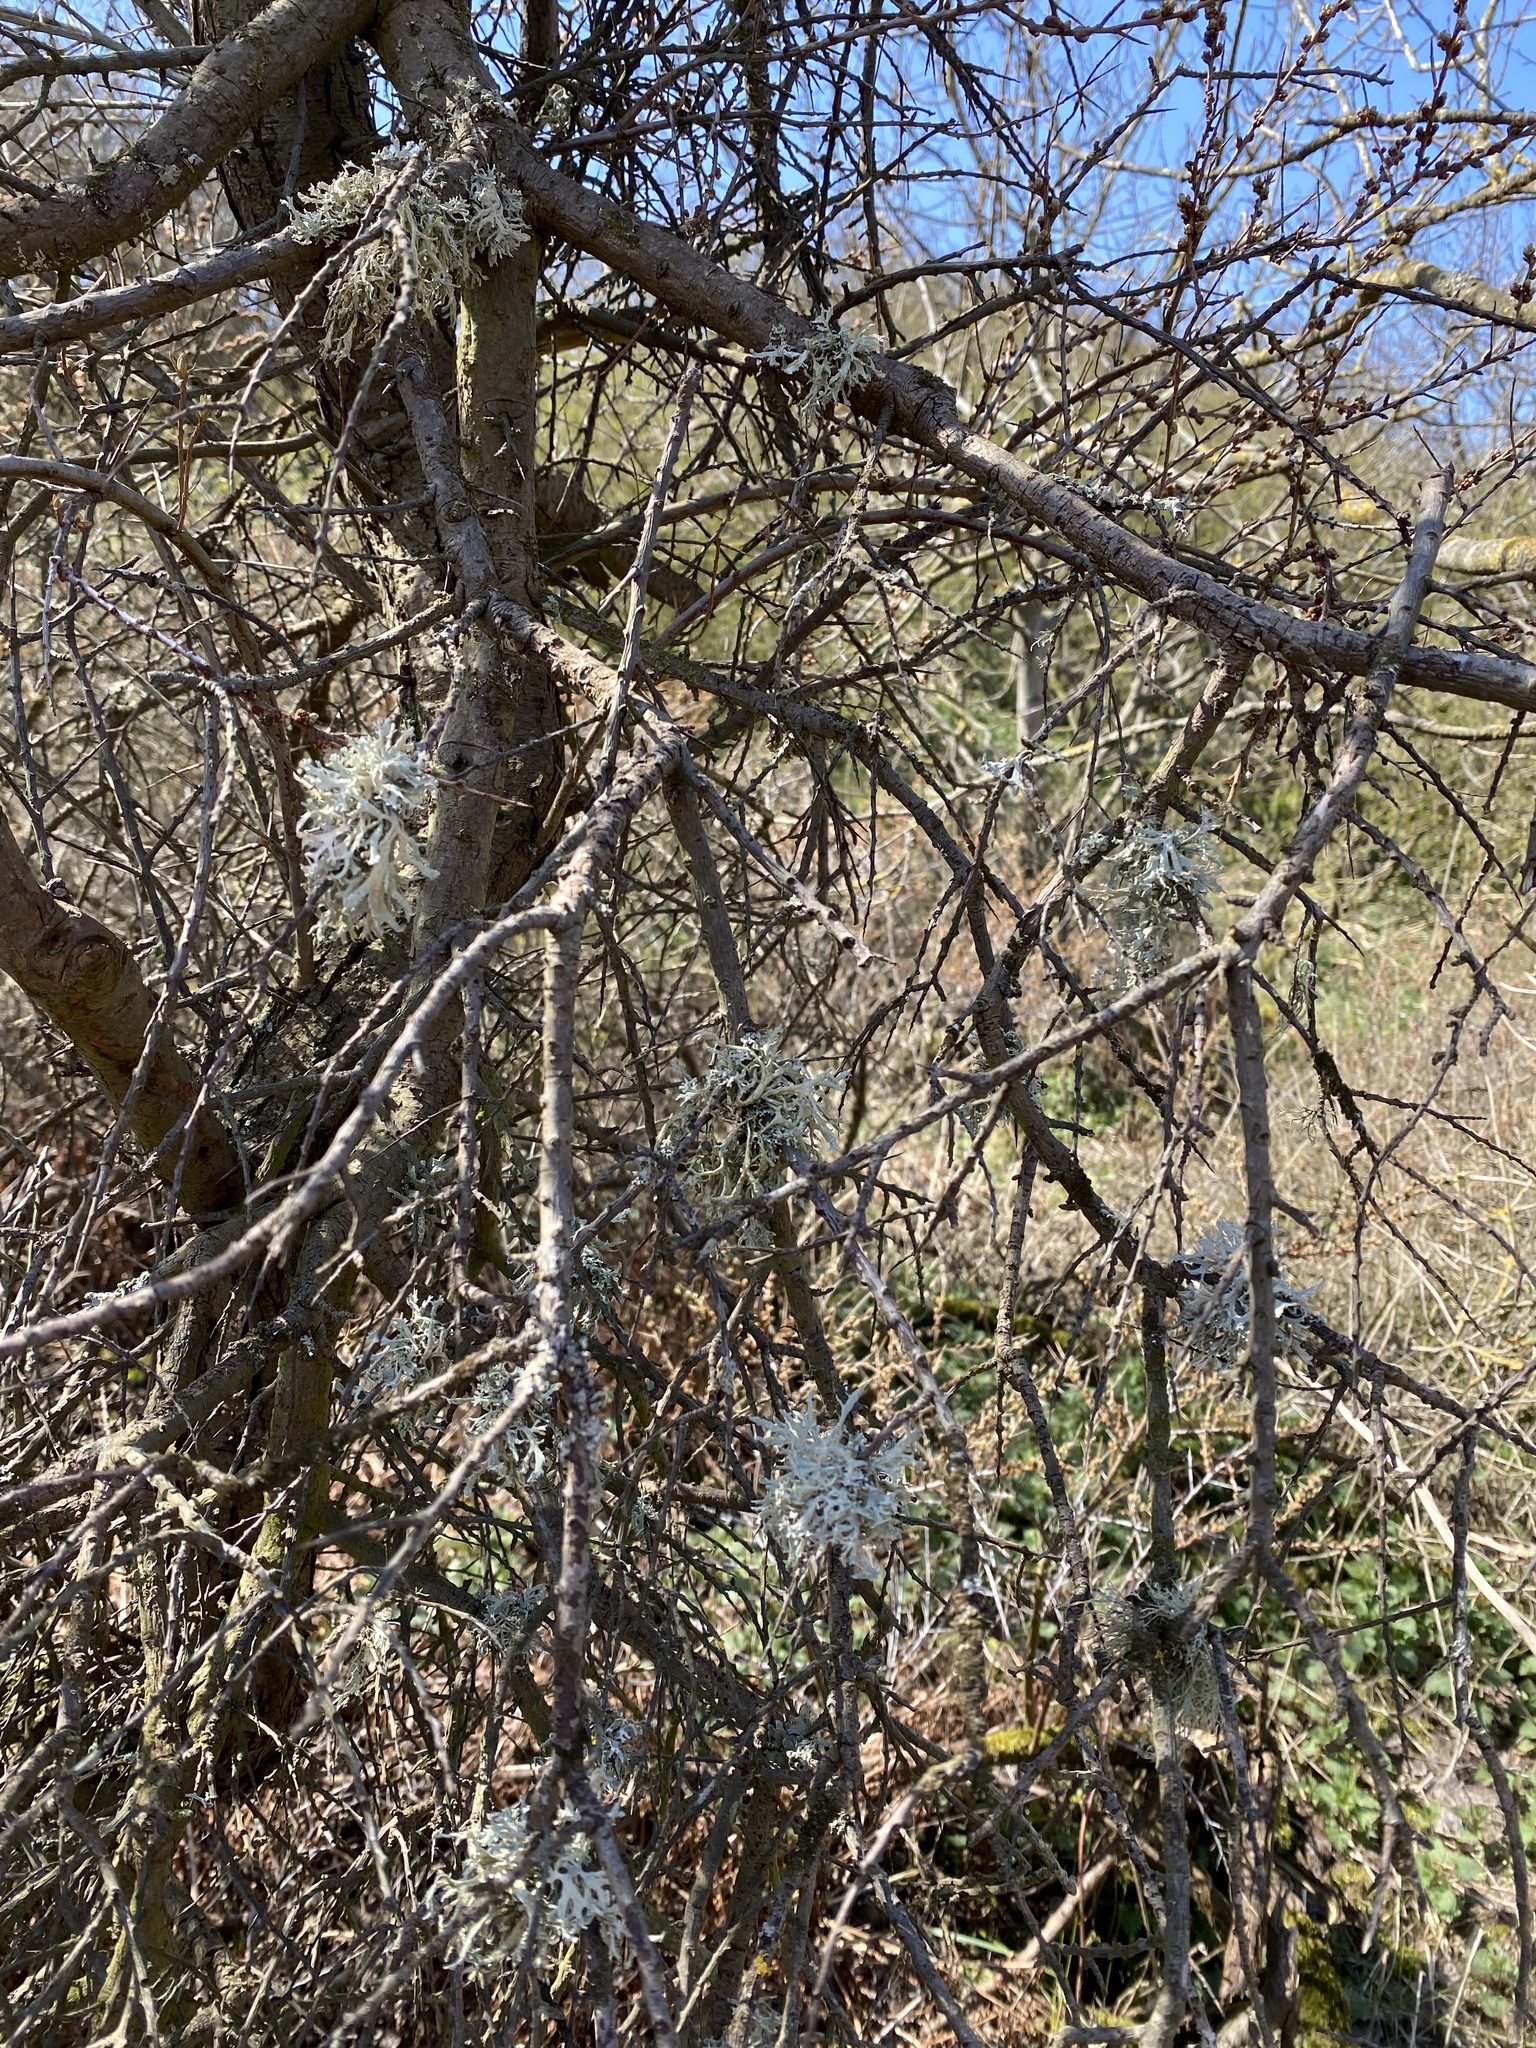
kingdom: Fungi
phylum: Ascomycota
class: Lecanoromycetes
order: Lecanorales
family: Parmeliaceae
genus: Evernia
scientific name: Evernia prunastri
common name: Oak moss
